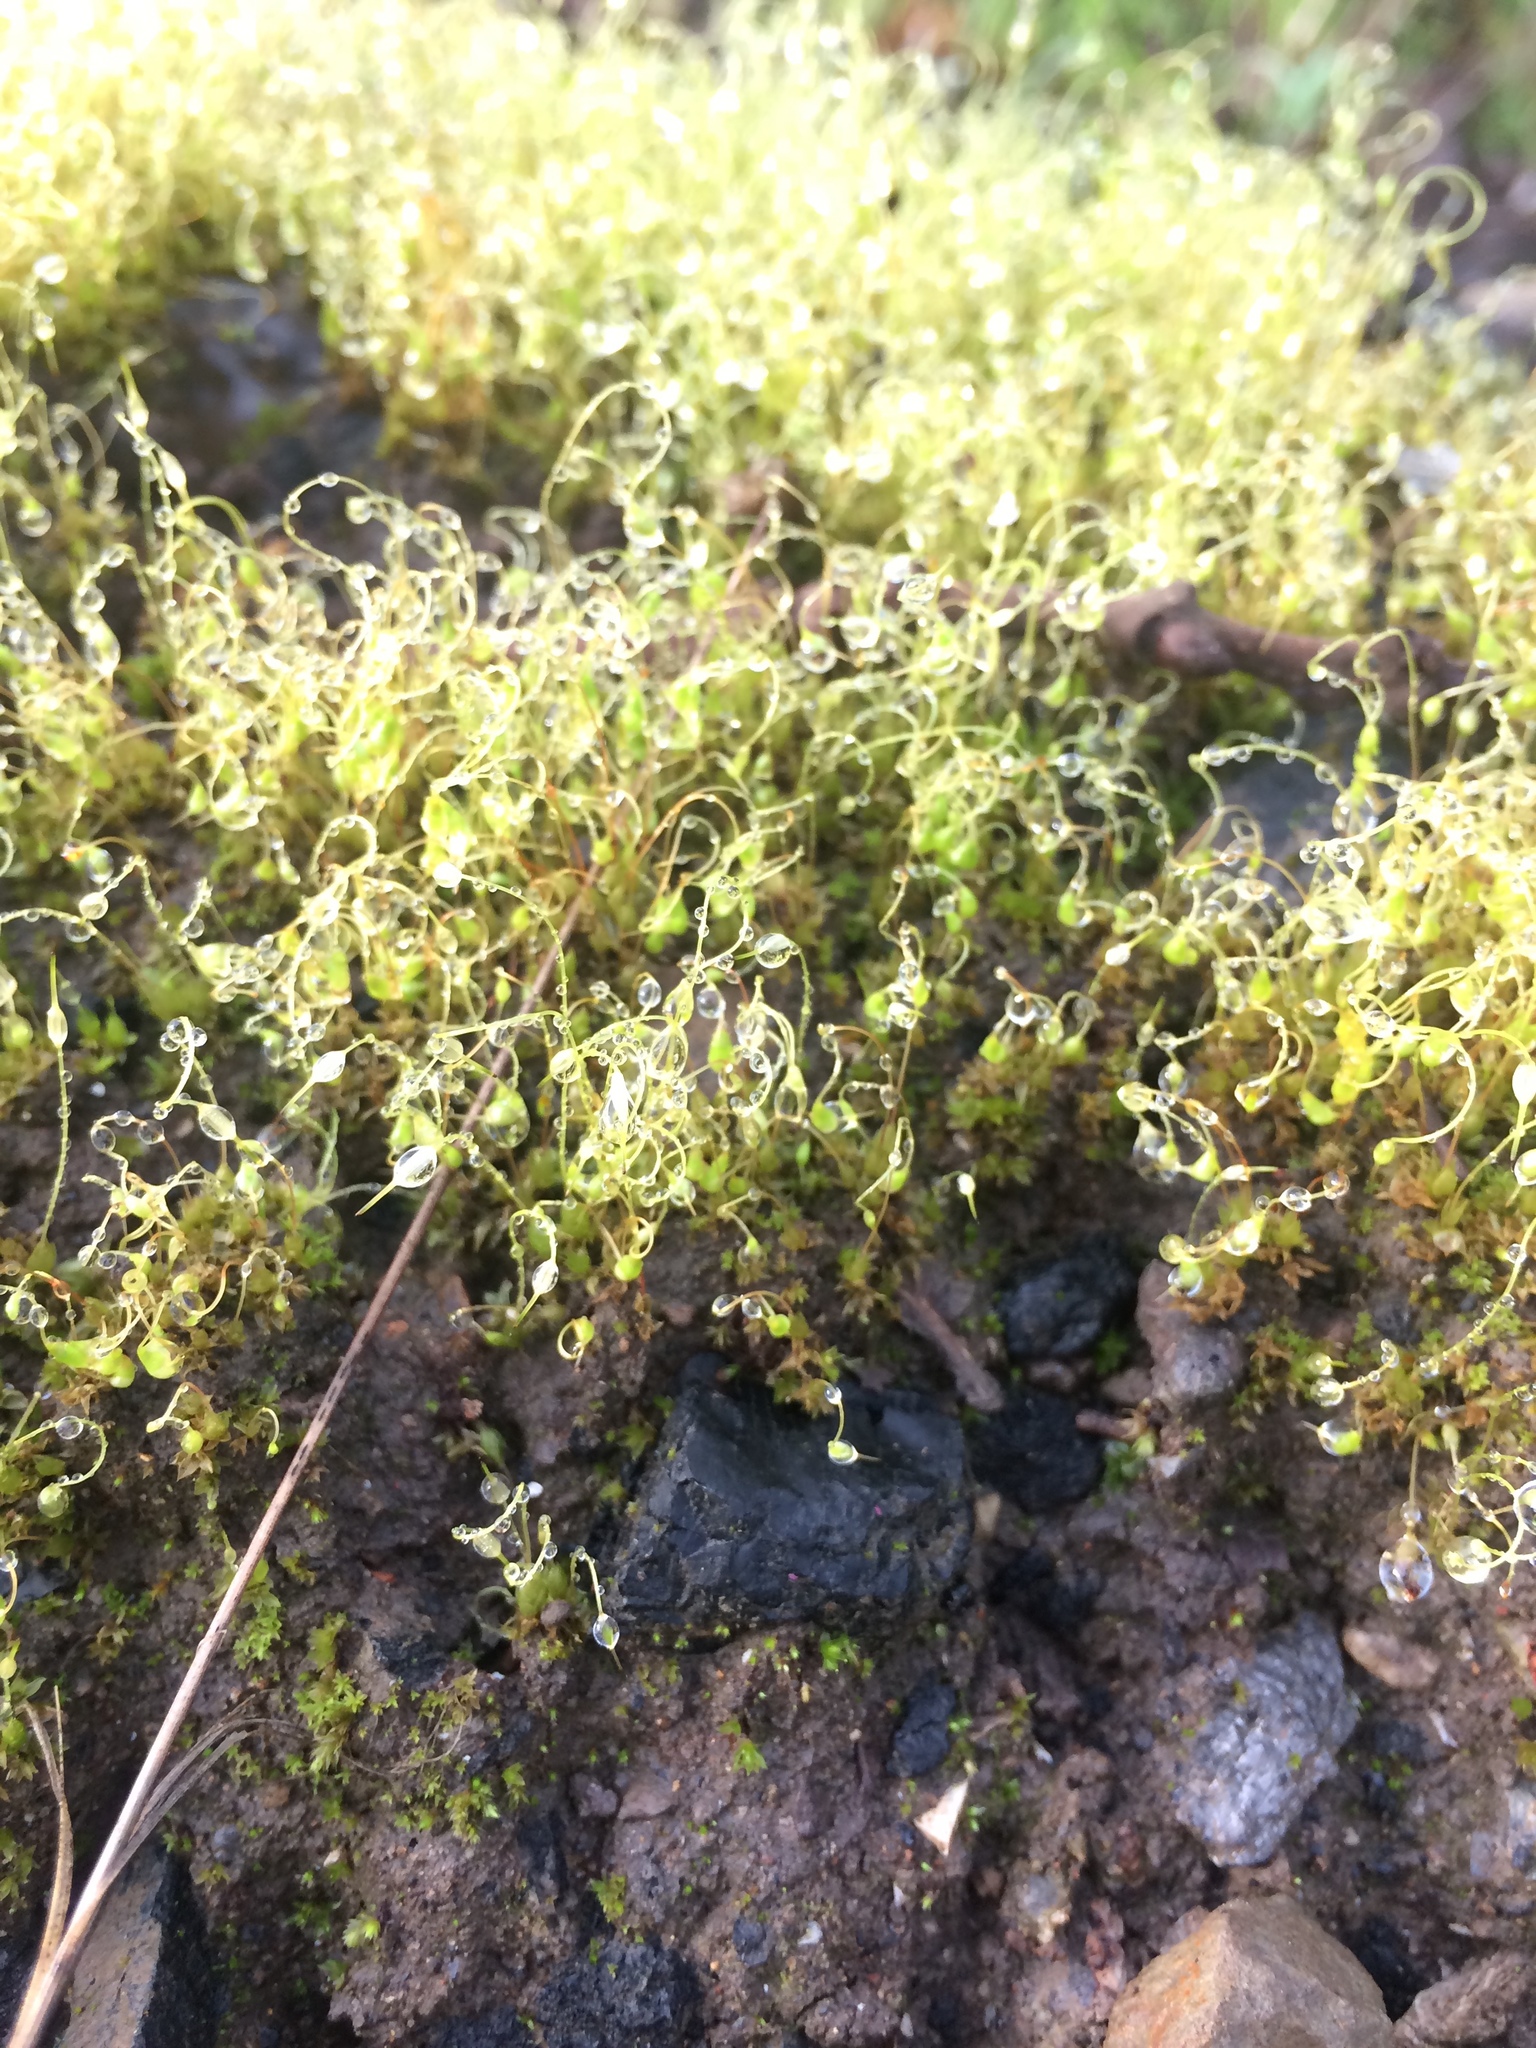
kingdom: Plantae
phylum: Bryophyta
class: Bryopsida
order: Funariales
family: Funariaceae
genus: Funaria
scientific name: Funaria hygrometrica
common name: Common cord moss
